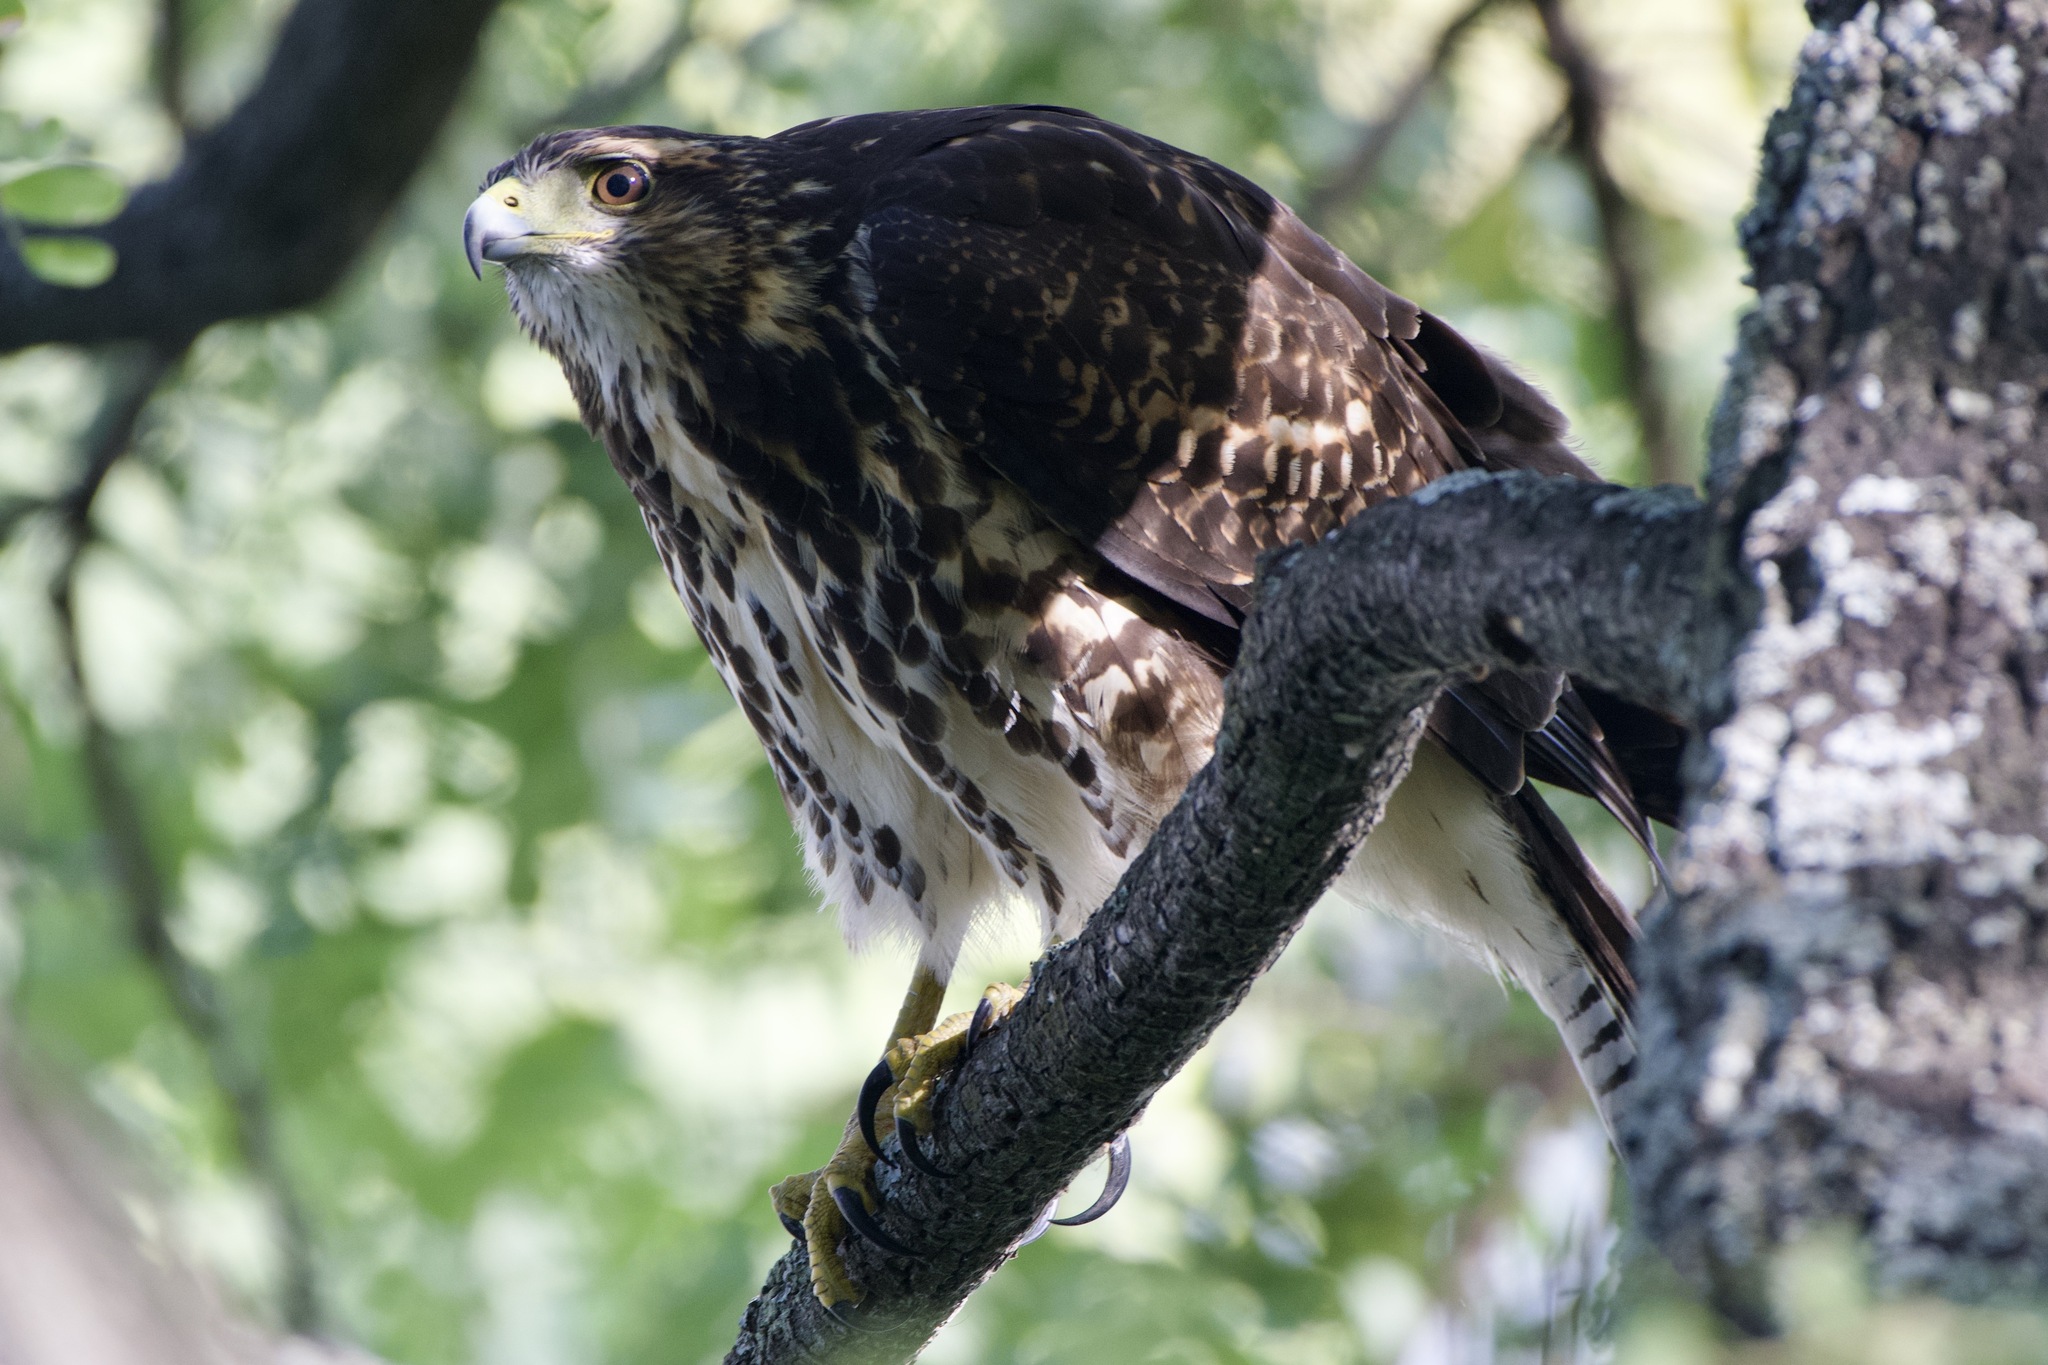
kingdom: Animalia
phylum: Chordata
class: Aves
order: Accipitriformes
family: Accipitridae
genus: Parabuteo
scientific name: Parabuteo unicinctus
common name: Harris's hawk
